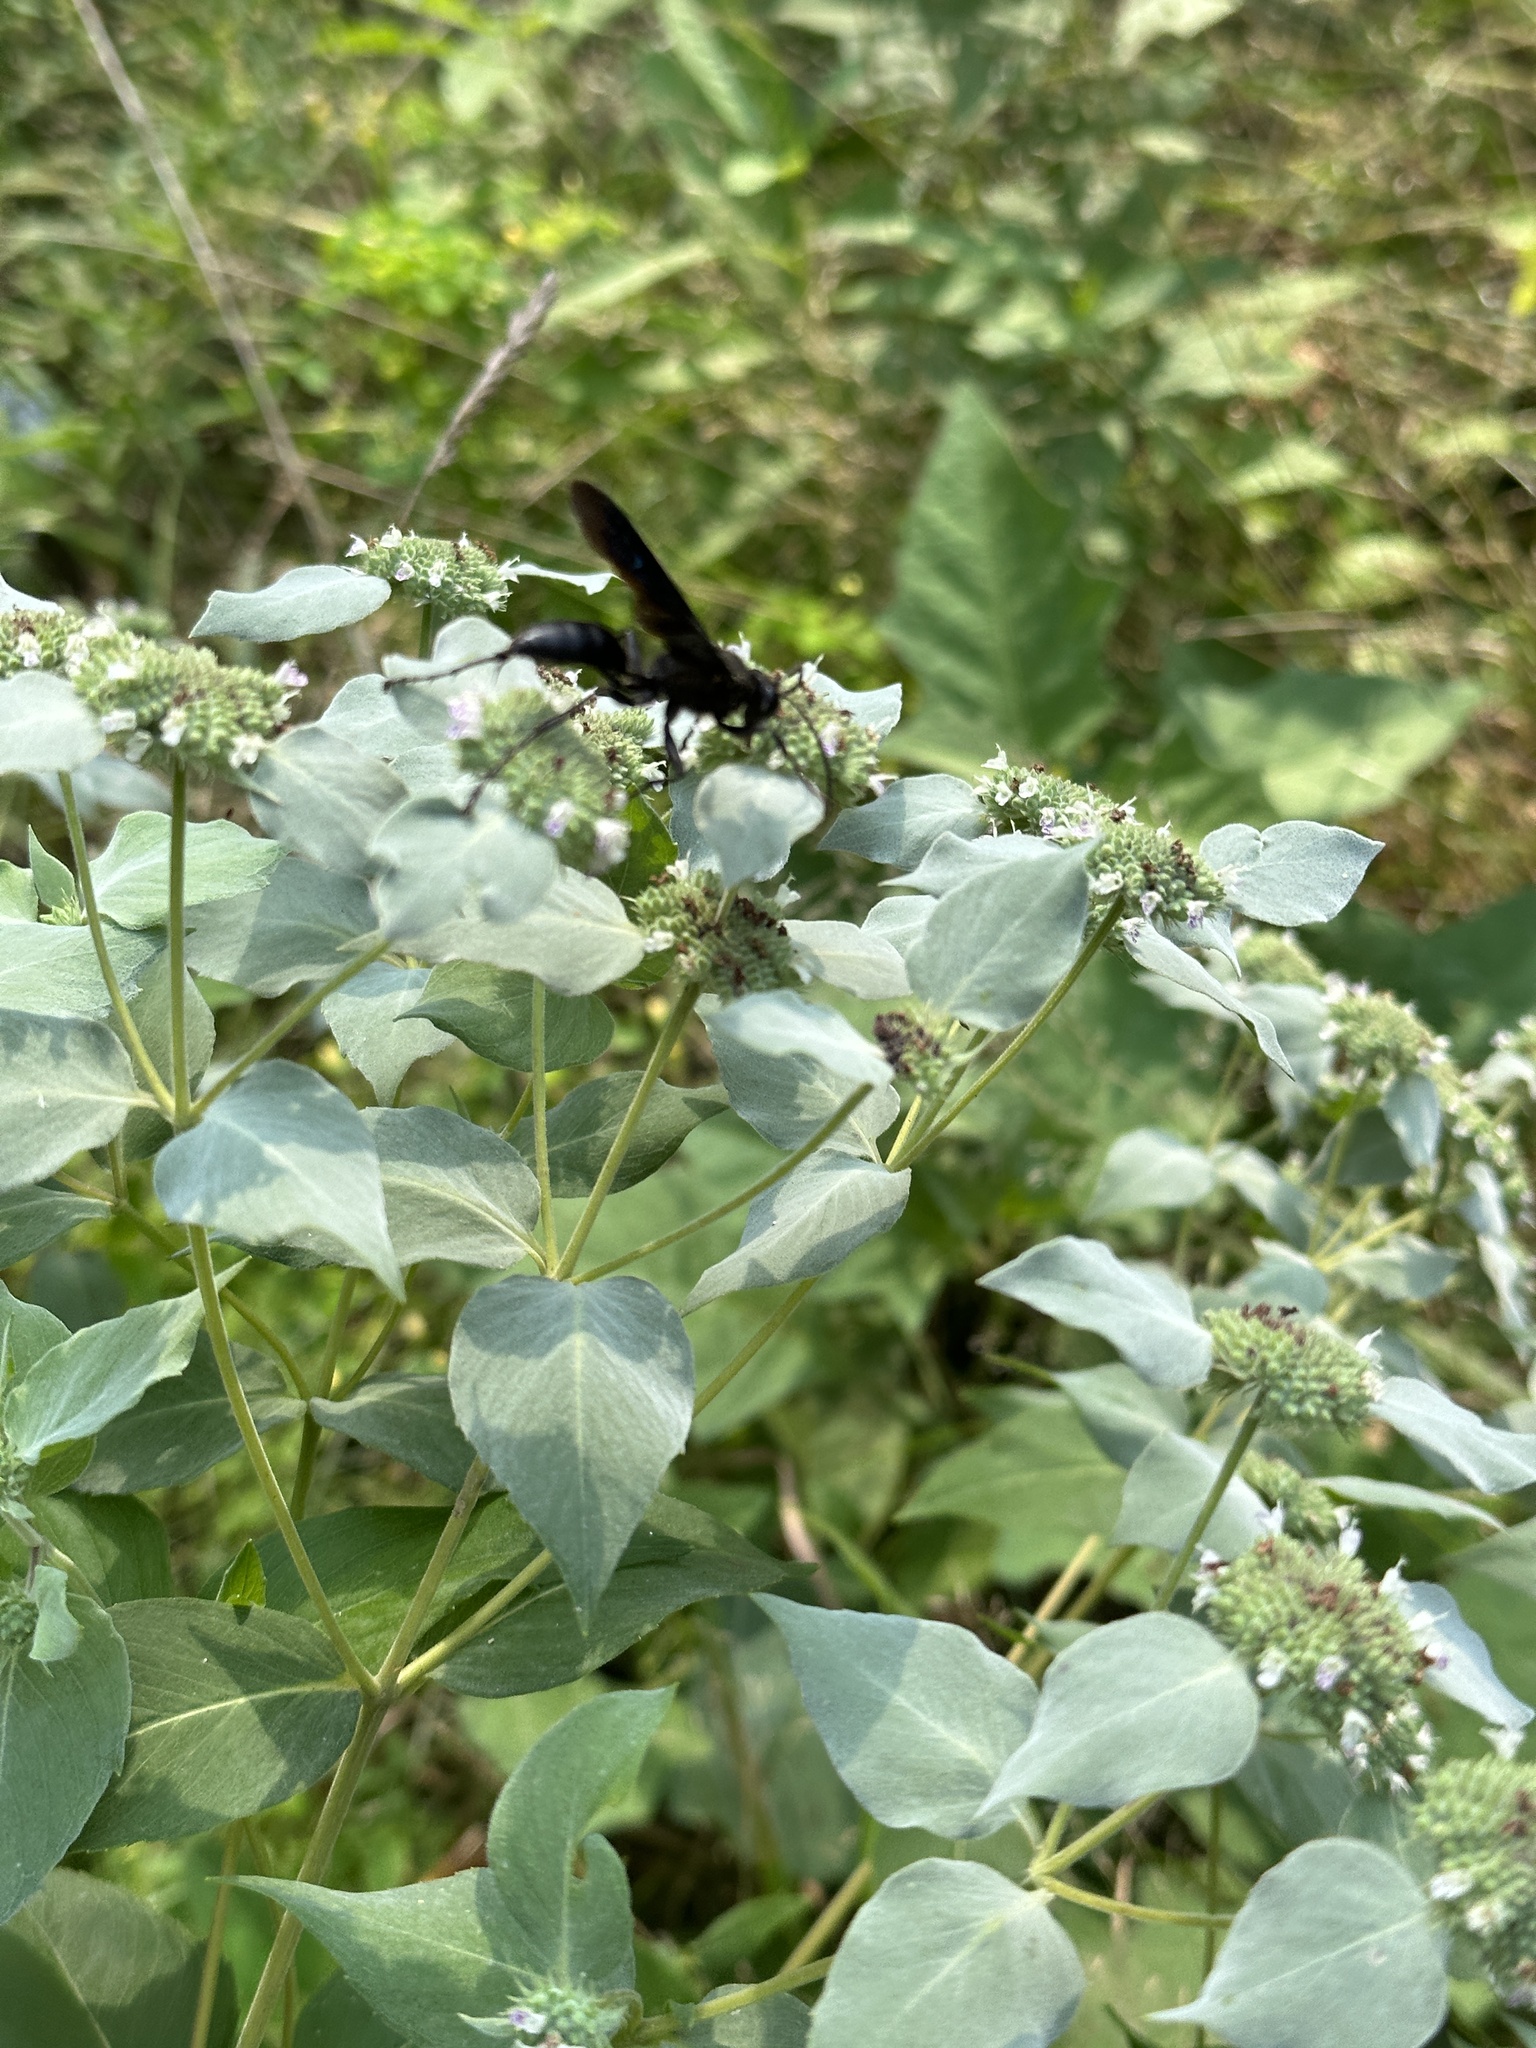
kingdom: Animalia
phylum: Arthropoda
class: Insecta
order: Hymenoptera
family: Sphecidae
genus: Sphex
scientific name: Sphex pensylvanicus
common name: Great black digger wasp
